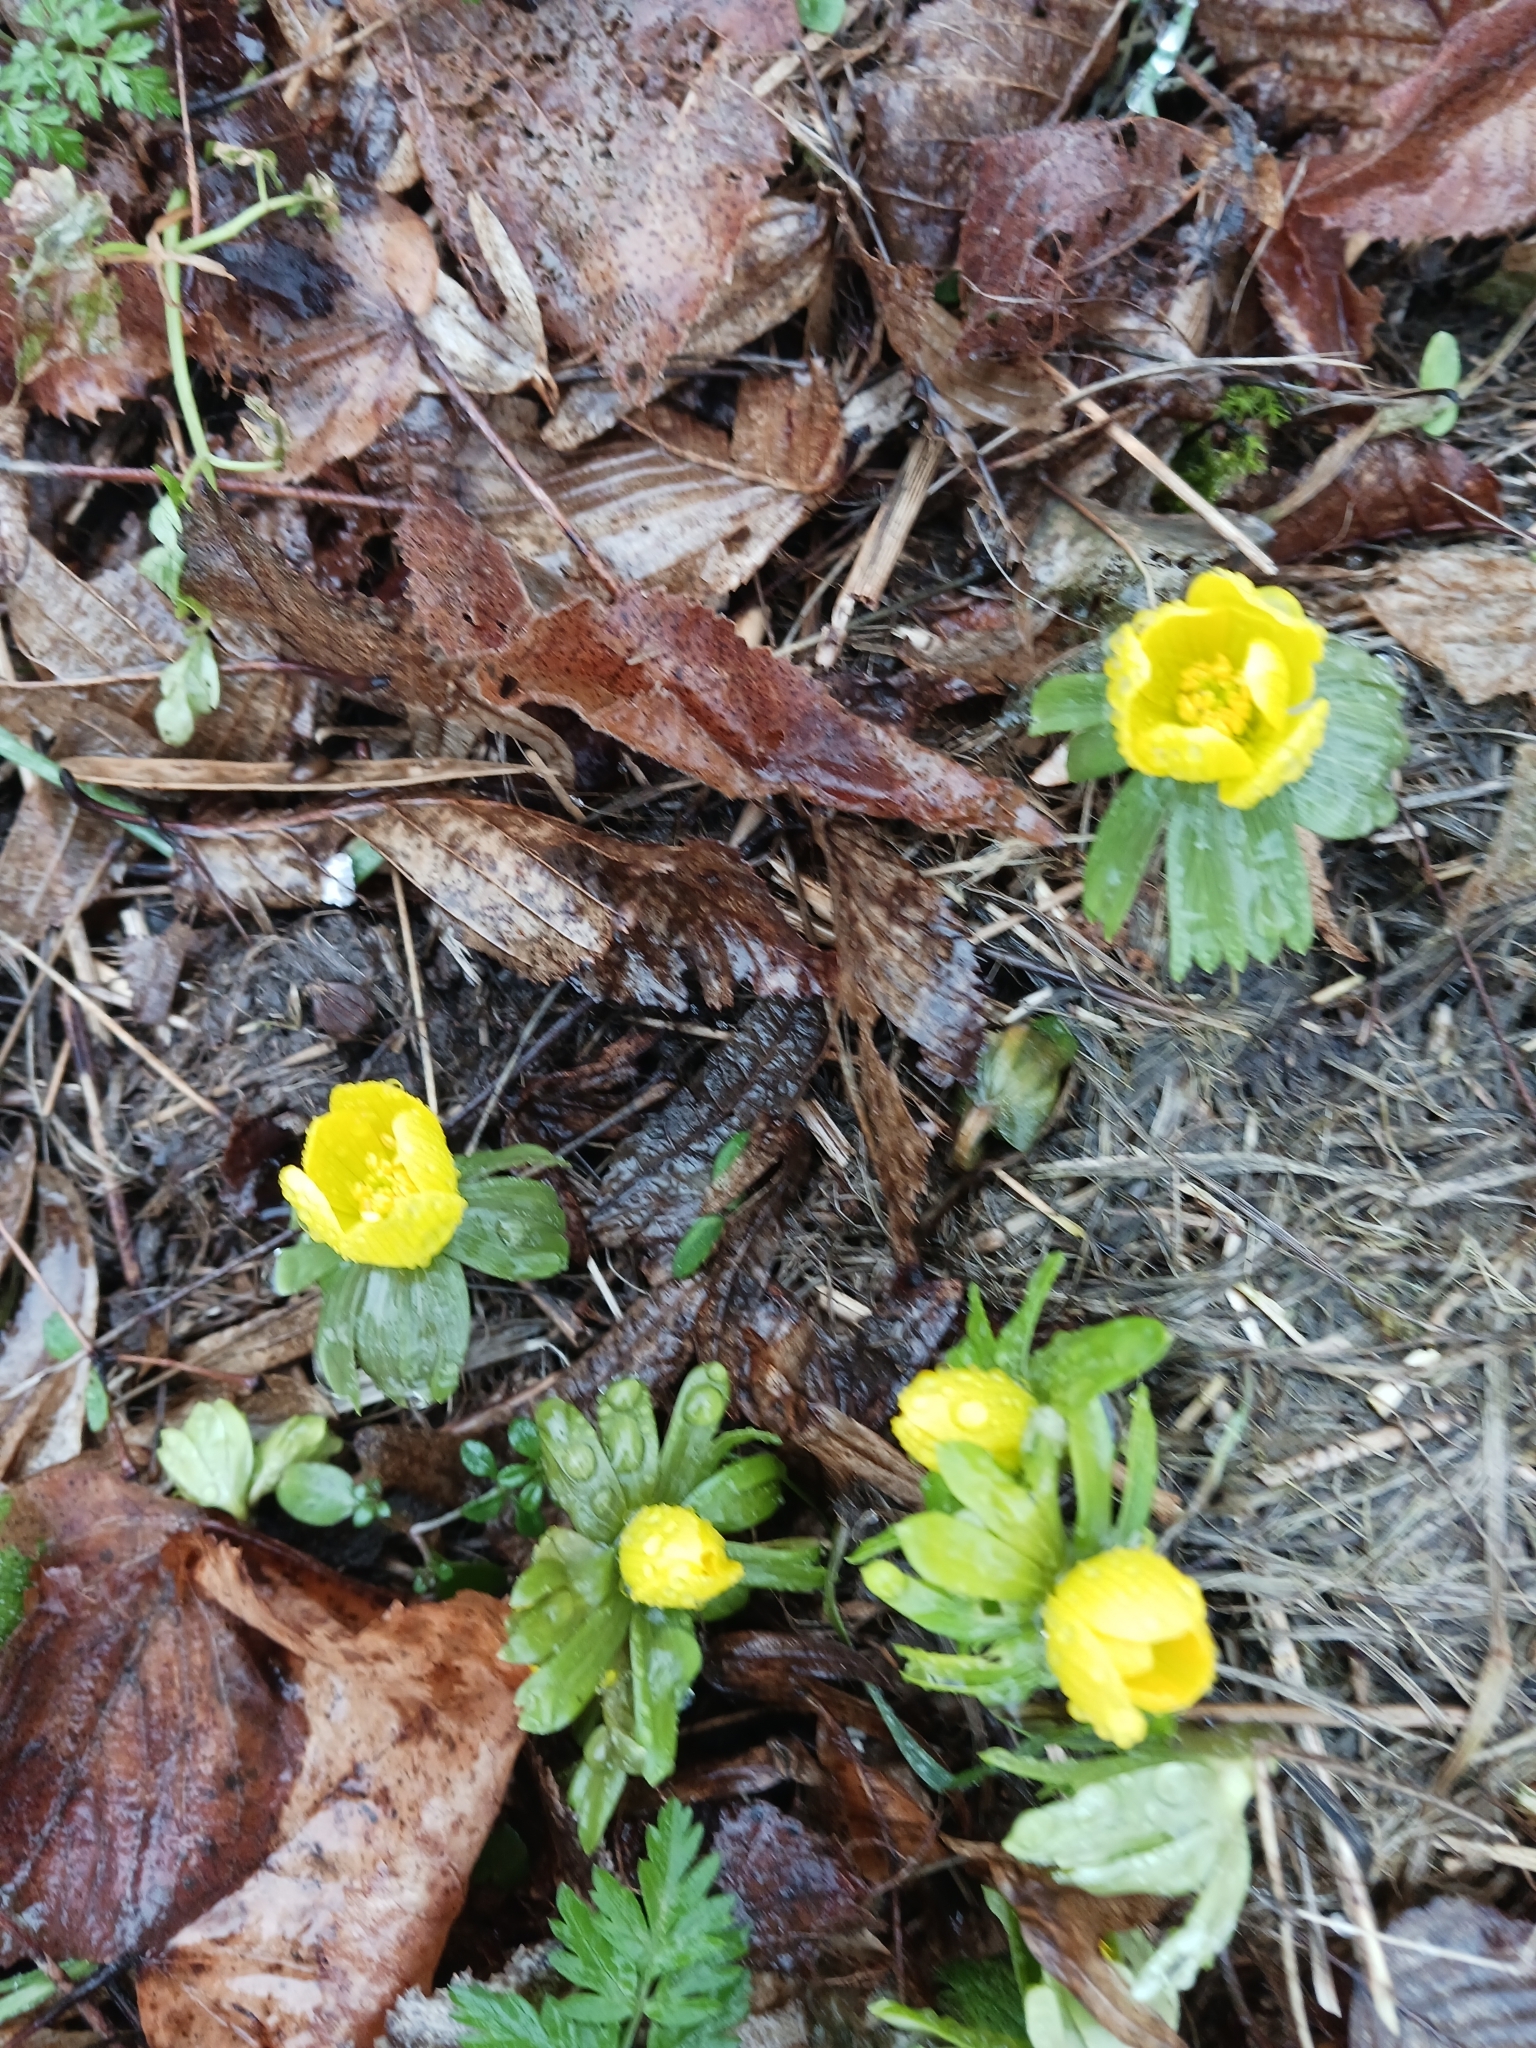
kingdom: Plantae
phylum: Tracheophyta
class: Magnoliopsida
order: Ranunculales
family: Ranunculaceae
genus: Eranthis
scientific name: Eranthis hyemalis
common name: Winter aconite
